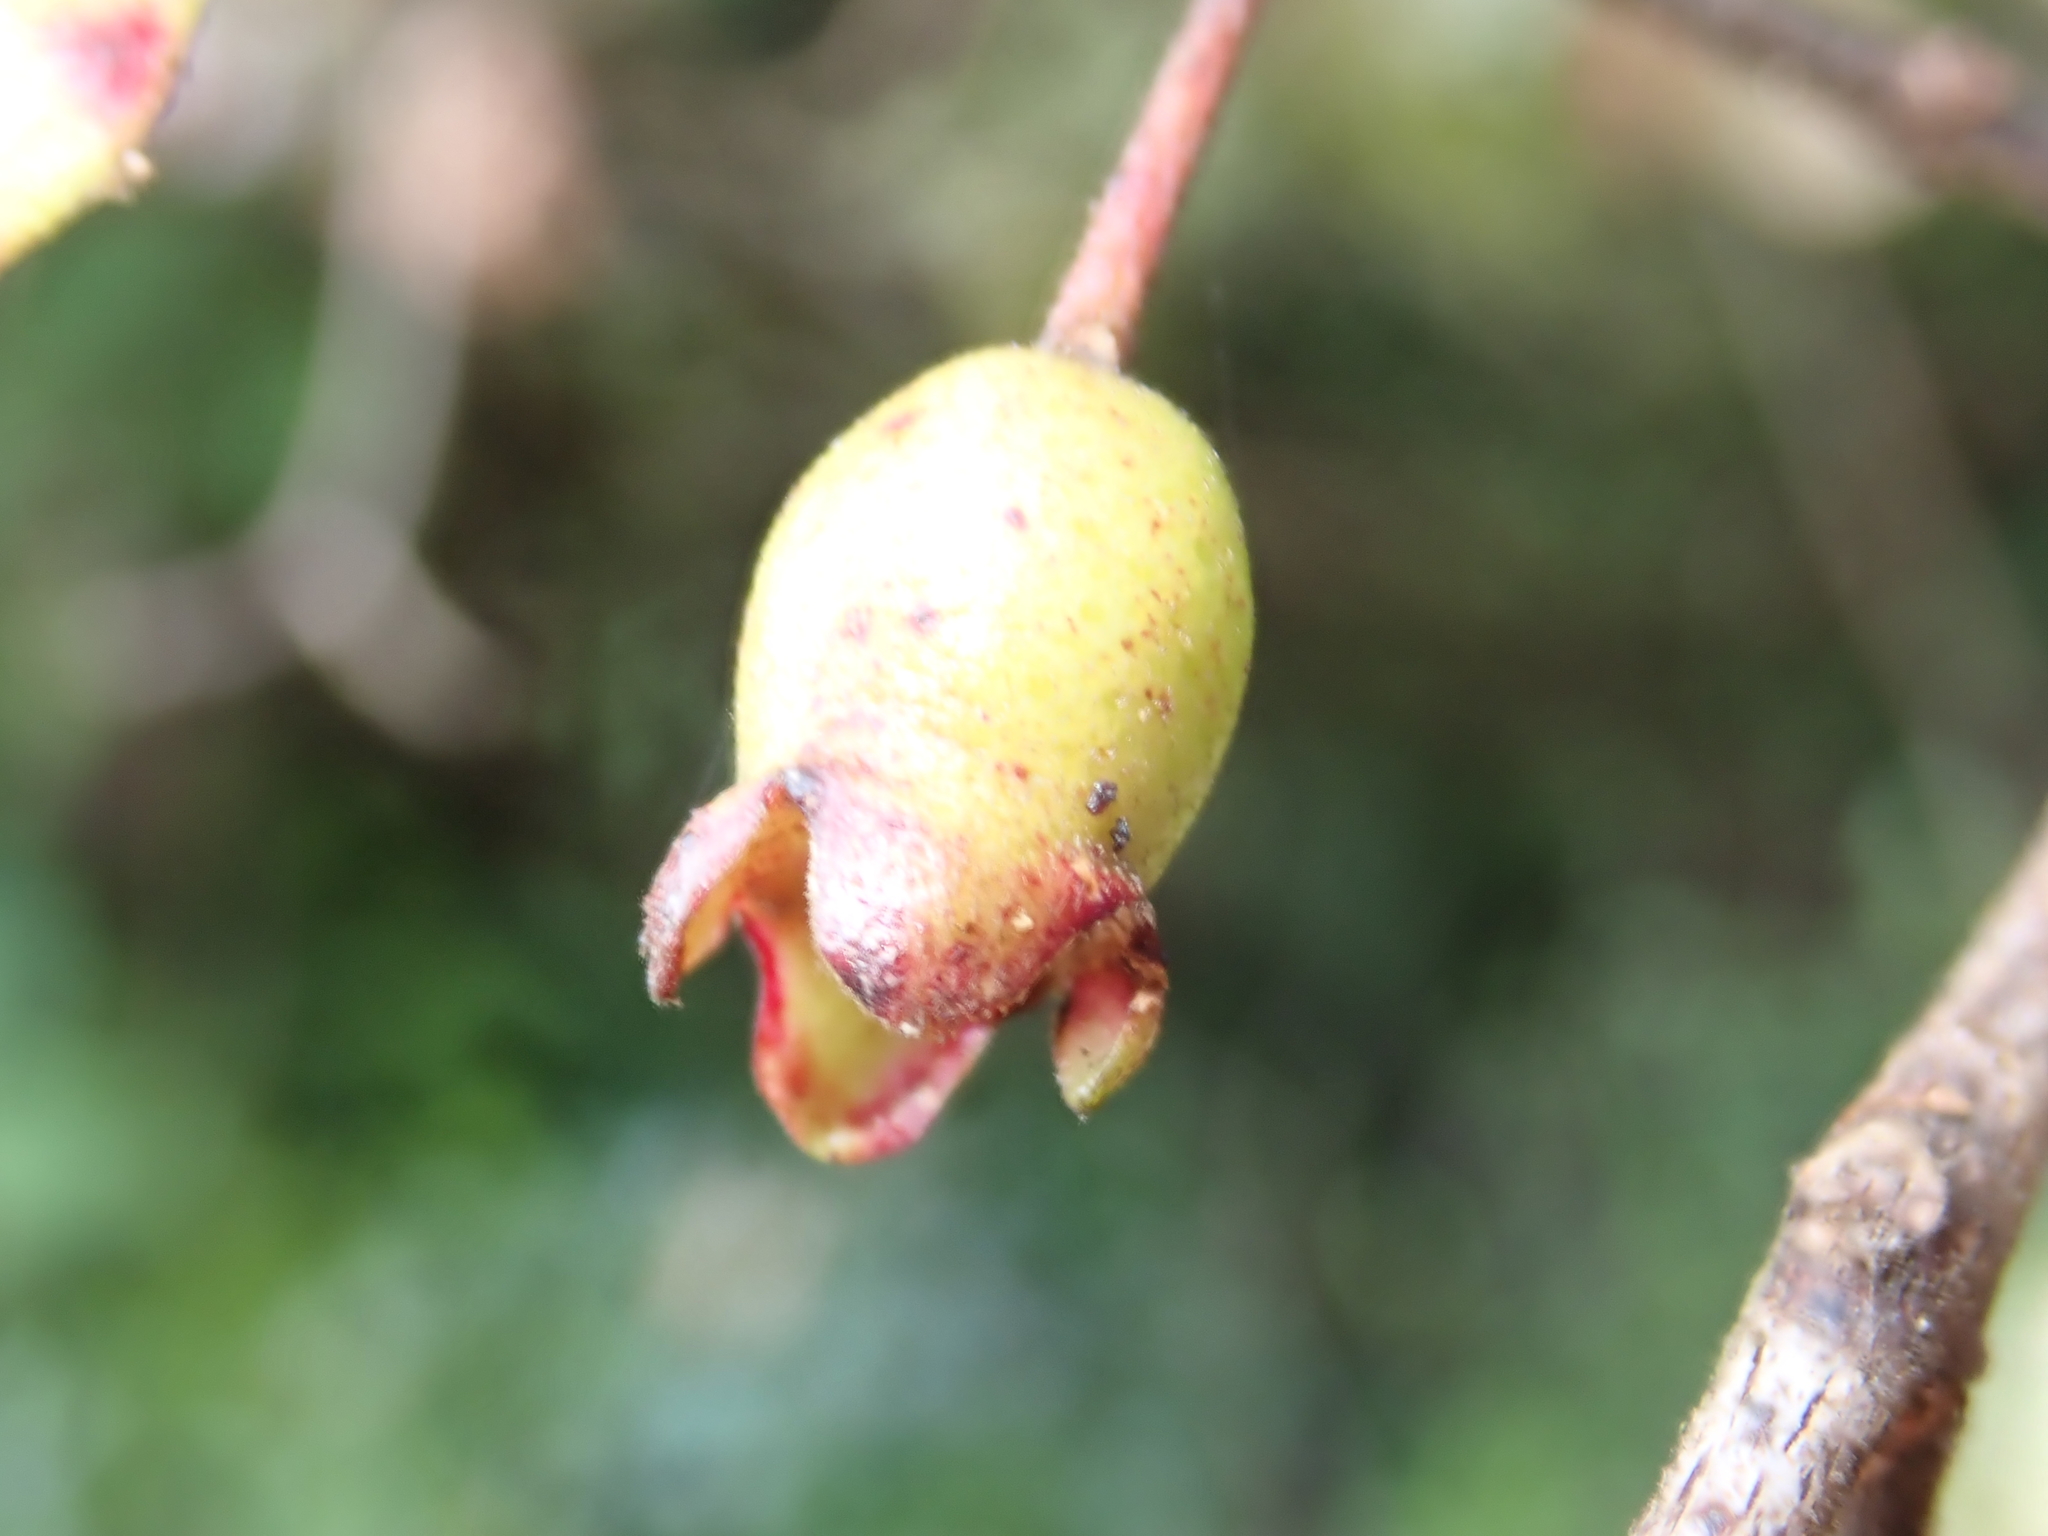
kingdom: Plantae
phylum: Tracheophyta
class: Magnoliopsida
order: Myrtales
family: Myrtaceae
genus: Lophomyrtus
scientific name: Lophomyrtus bullata
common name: Rama rama
